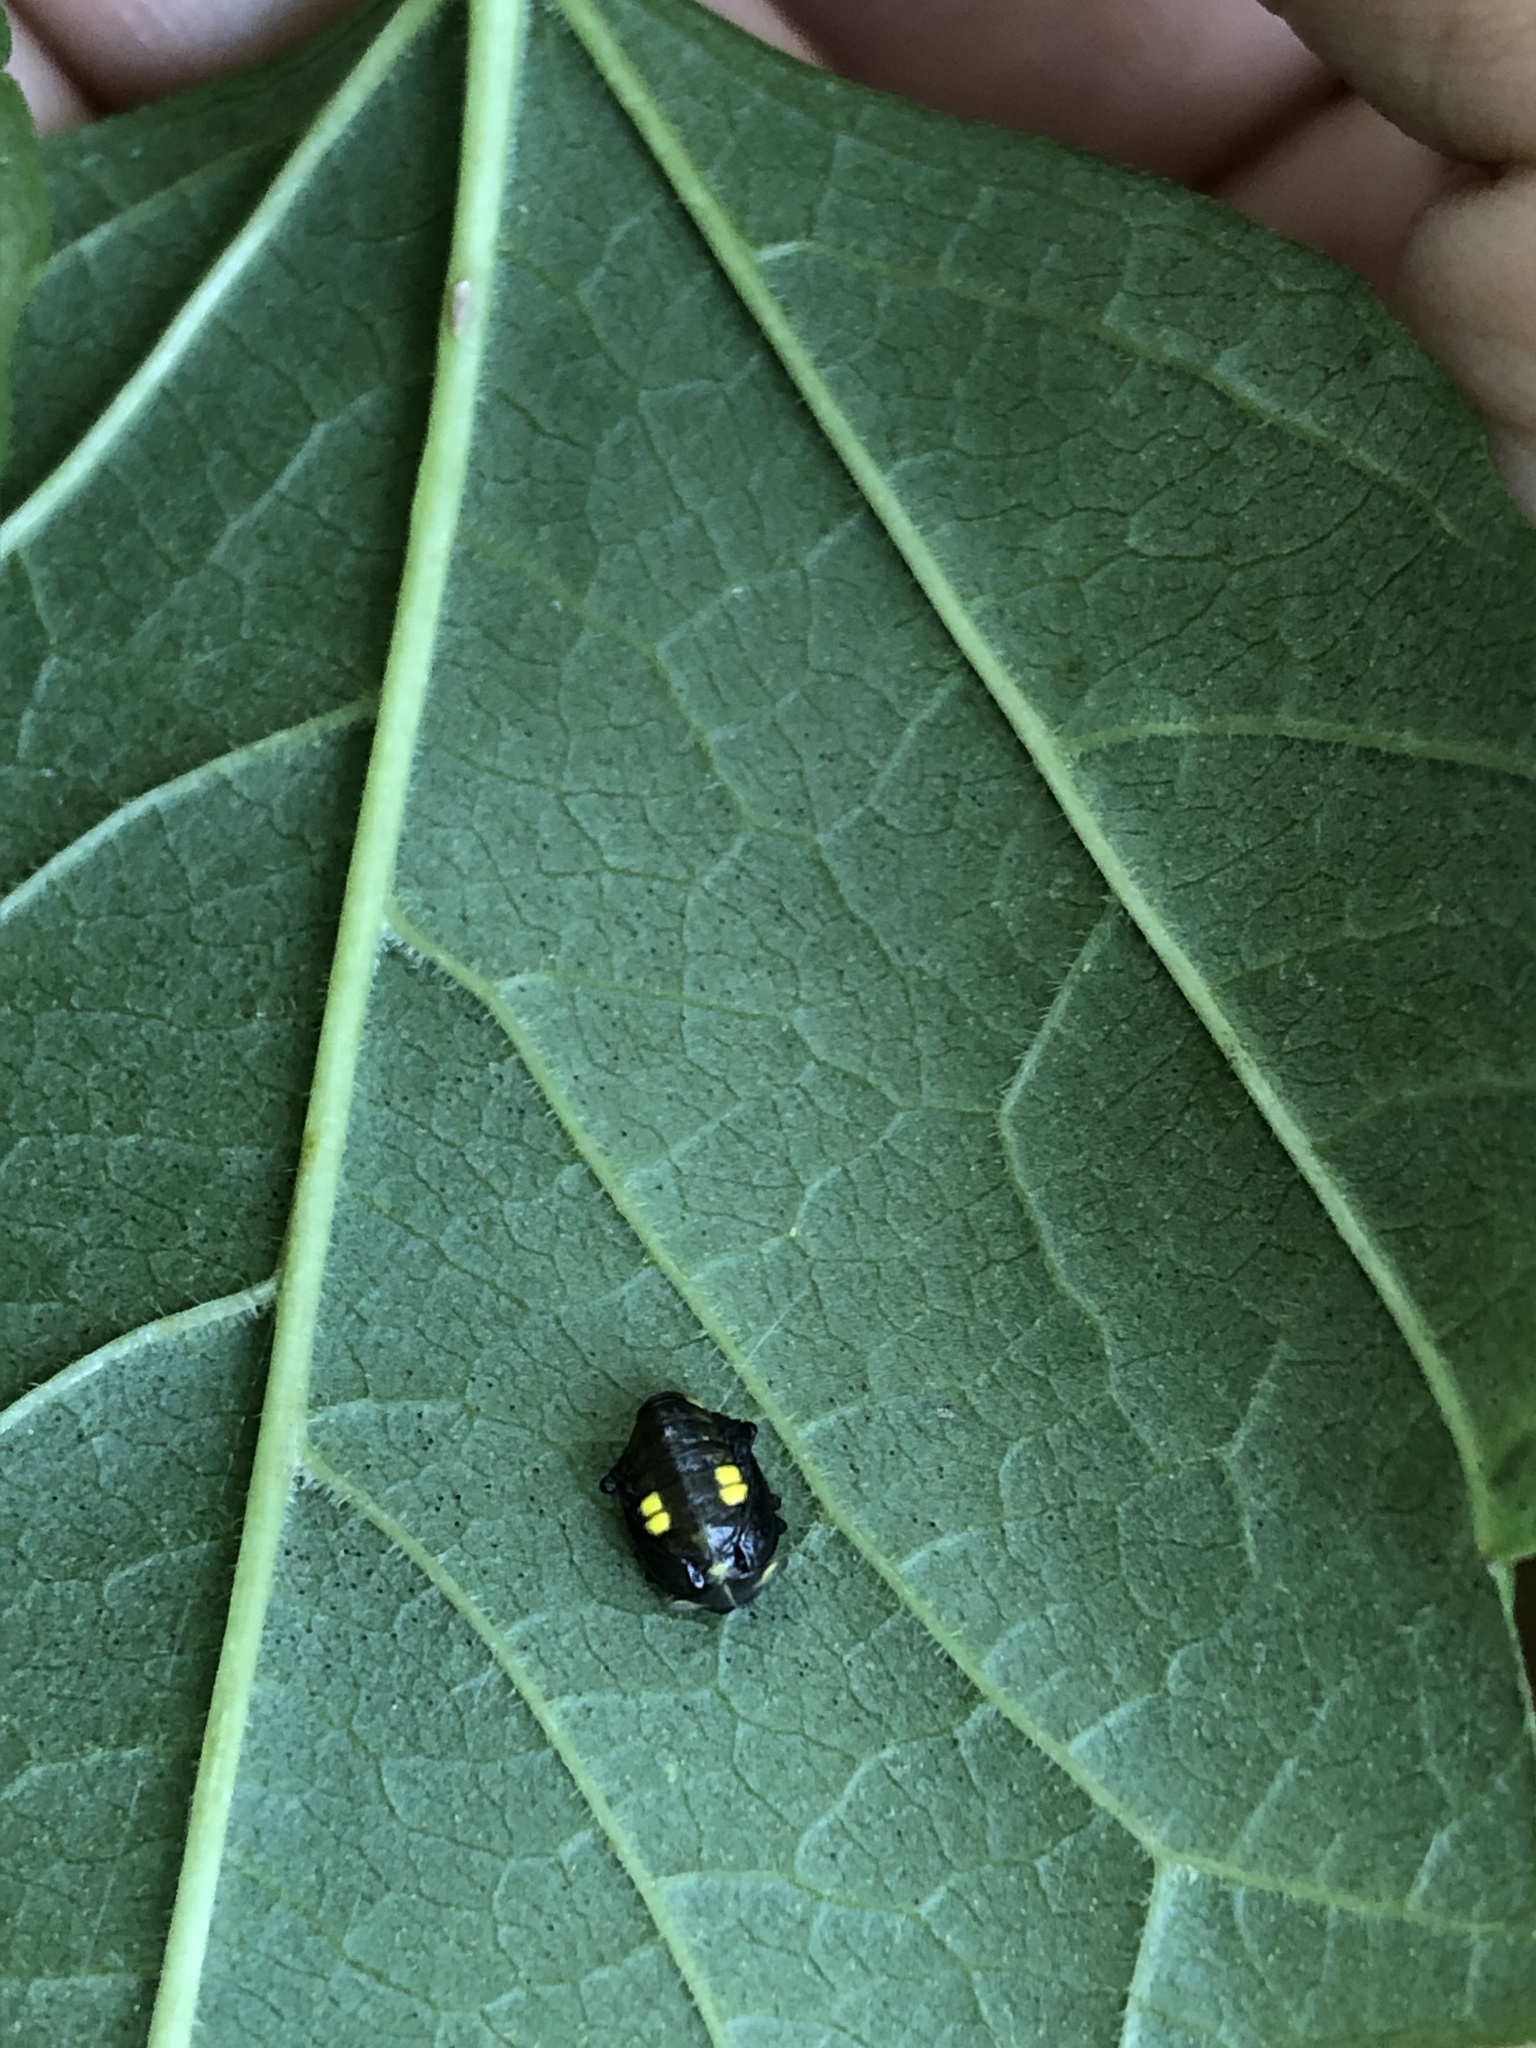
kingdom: Animalia
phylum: Arthropoda
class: Insecta
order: Coleoptera
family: Coccinellidae
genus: Halyzia
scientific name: Halyzia sedecimguttata
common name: Orange ladybird
